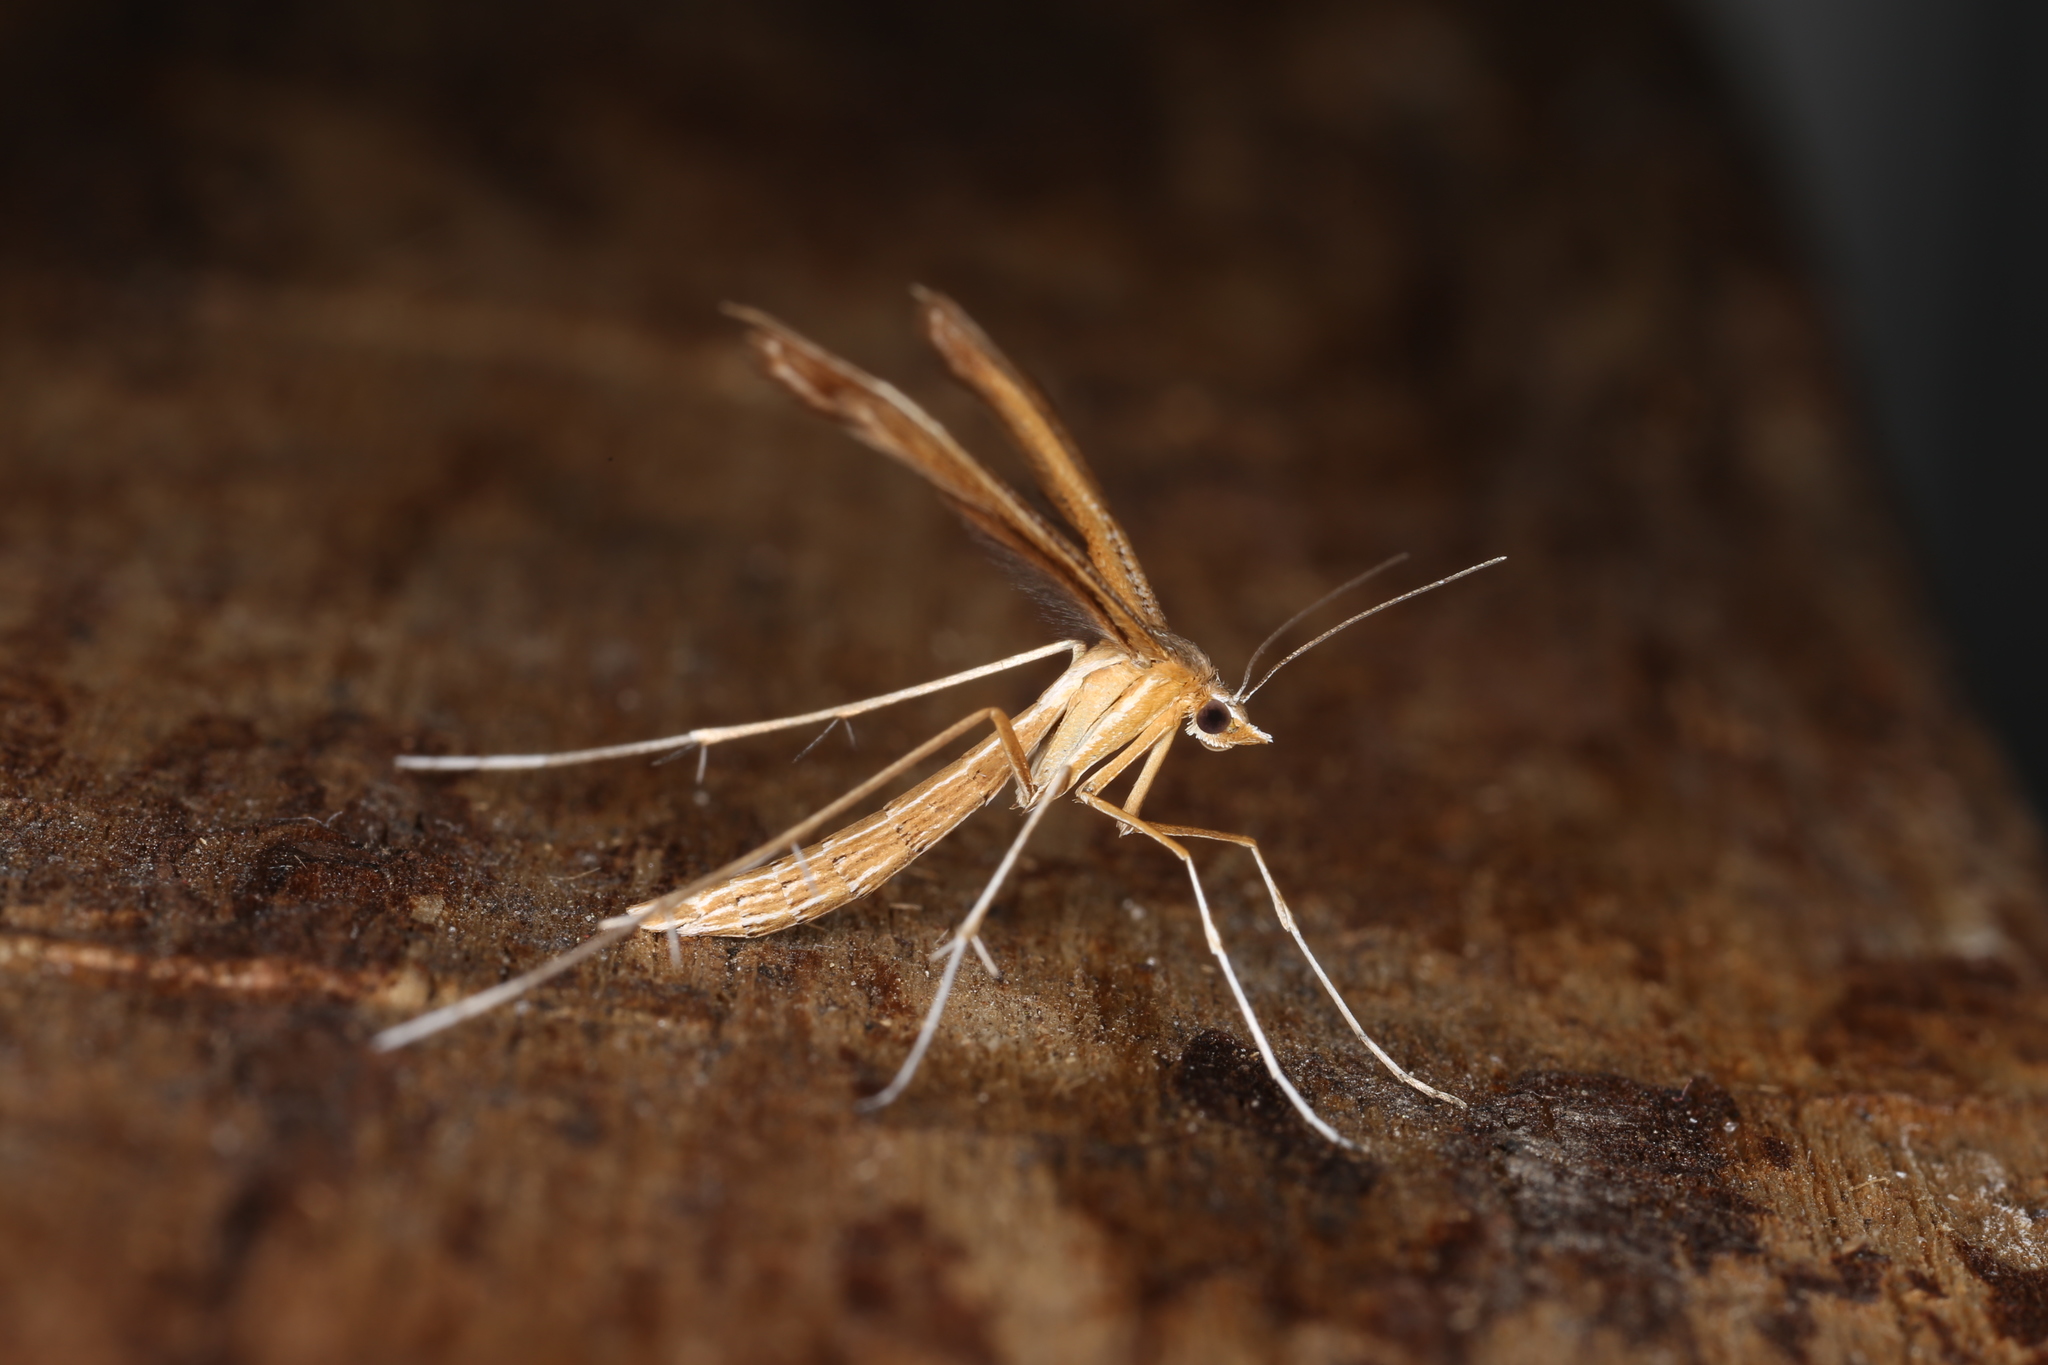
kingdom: Animalia
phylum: Arthropoda
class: Insecta
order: Lepidoptera
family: Pterophoridae
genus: Stenoptilia
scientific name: Stenoptilia pterodactyla
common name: Brown plume
